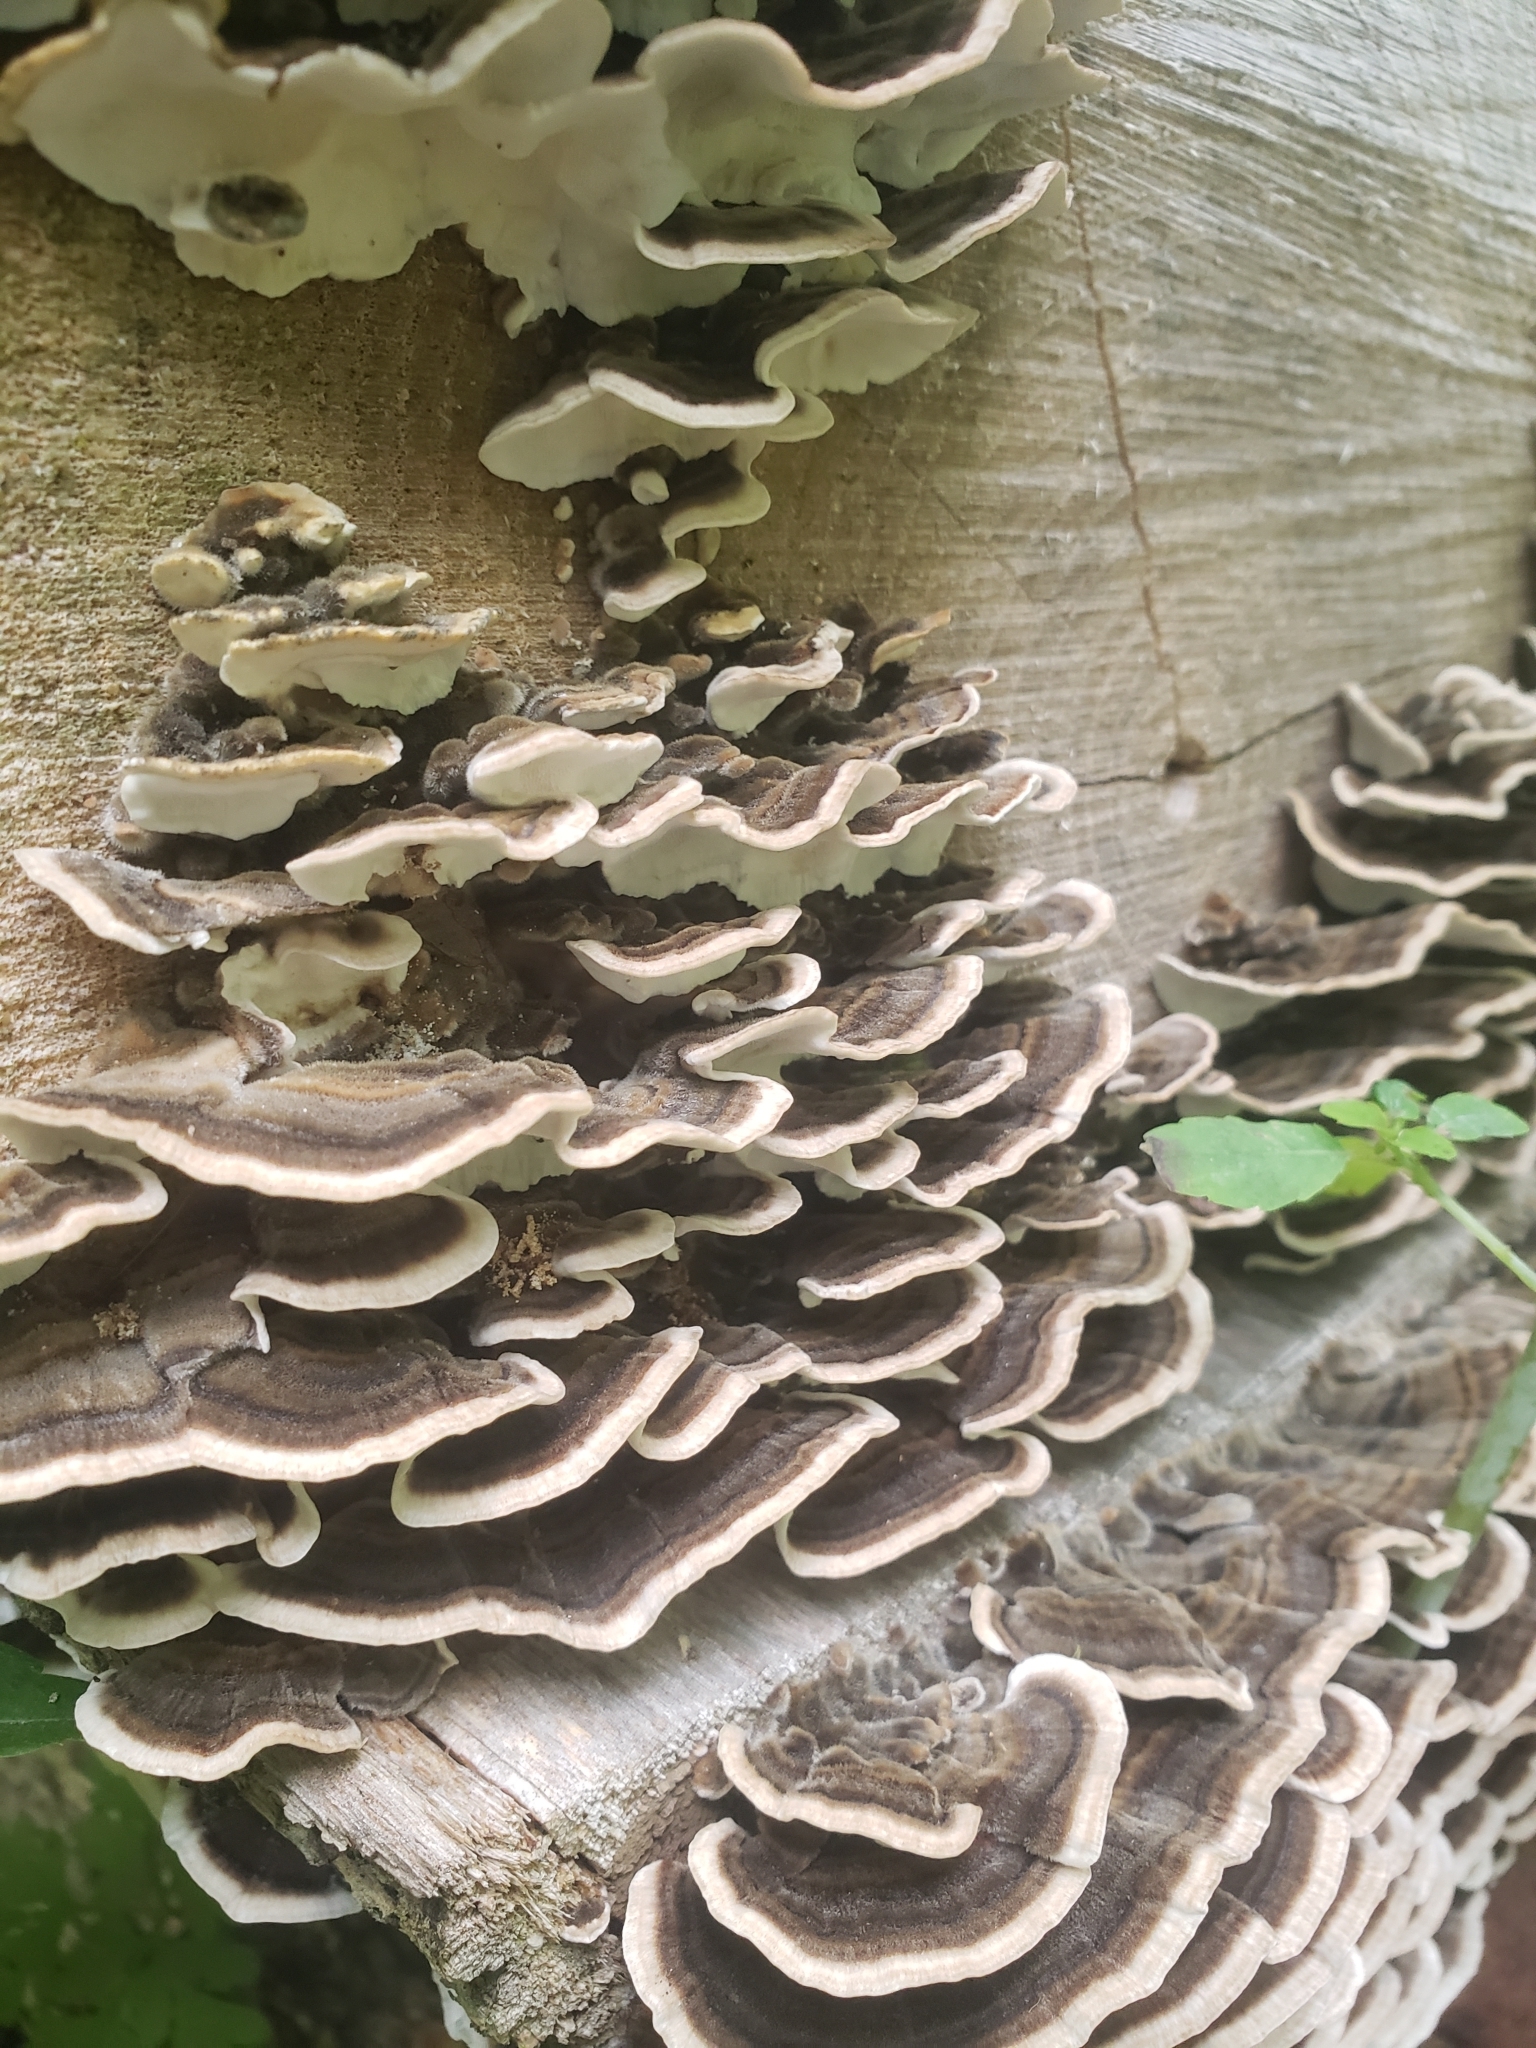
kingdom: Fungi
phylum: Basidiomycota
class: Agaricomycetes
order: Polyporales
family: Polyporaceae
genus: Trametes
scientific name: Trametes versicolor
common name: Turkeytail
